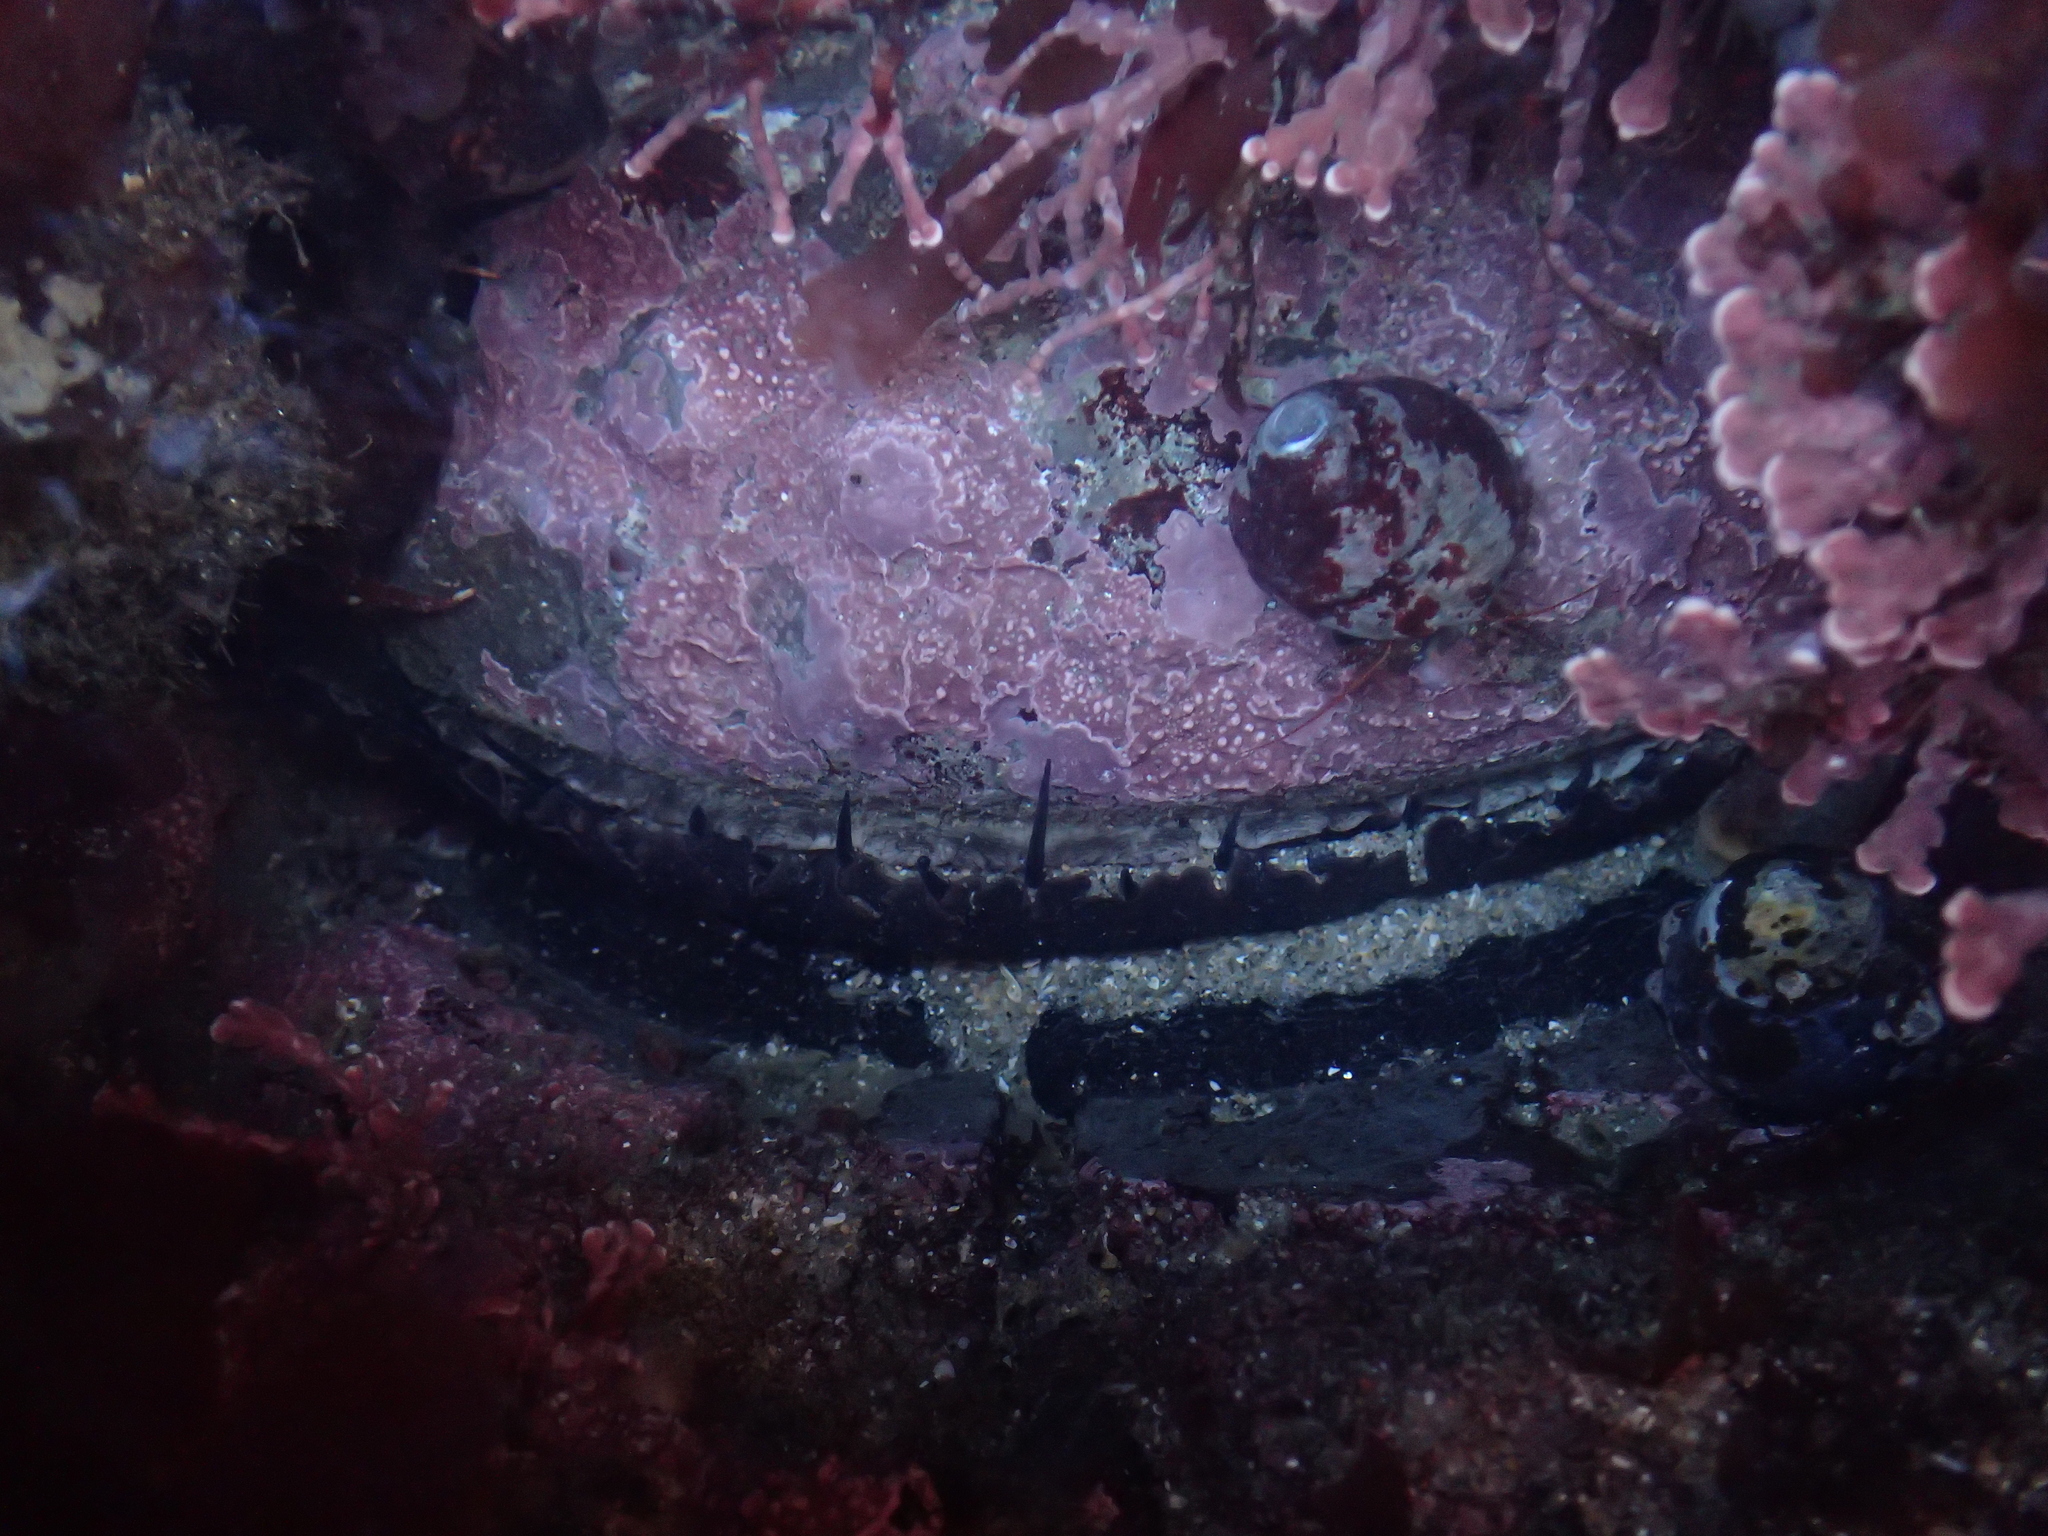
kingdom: Animalia
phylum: Mollusca
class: Gastropoda
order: Lepetellida
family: Haliotidae
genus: Haliotis
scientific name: Haliotis rufescens
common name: Red abalone
